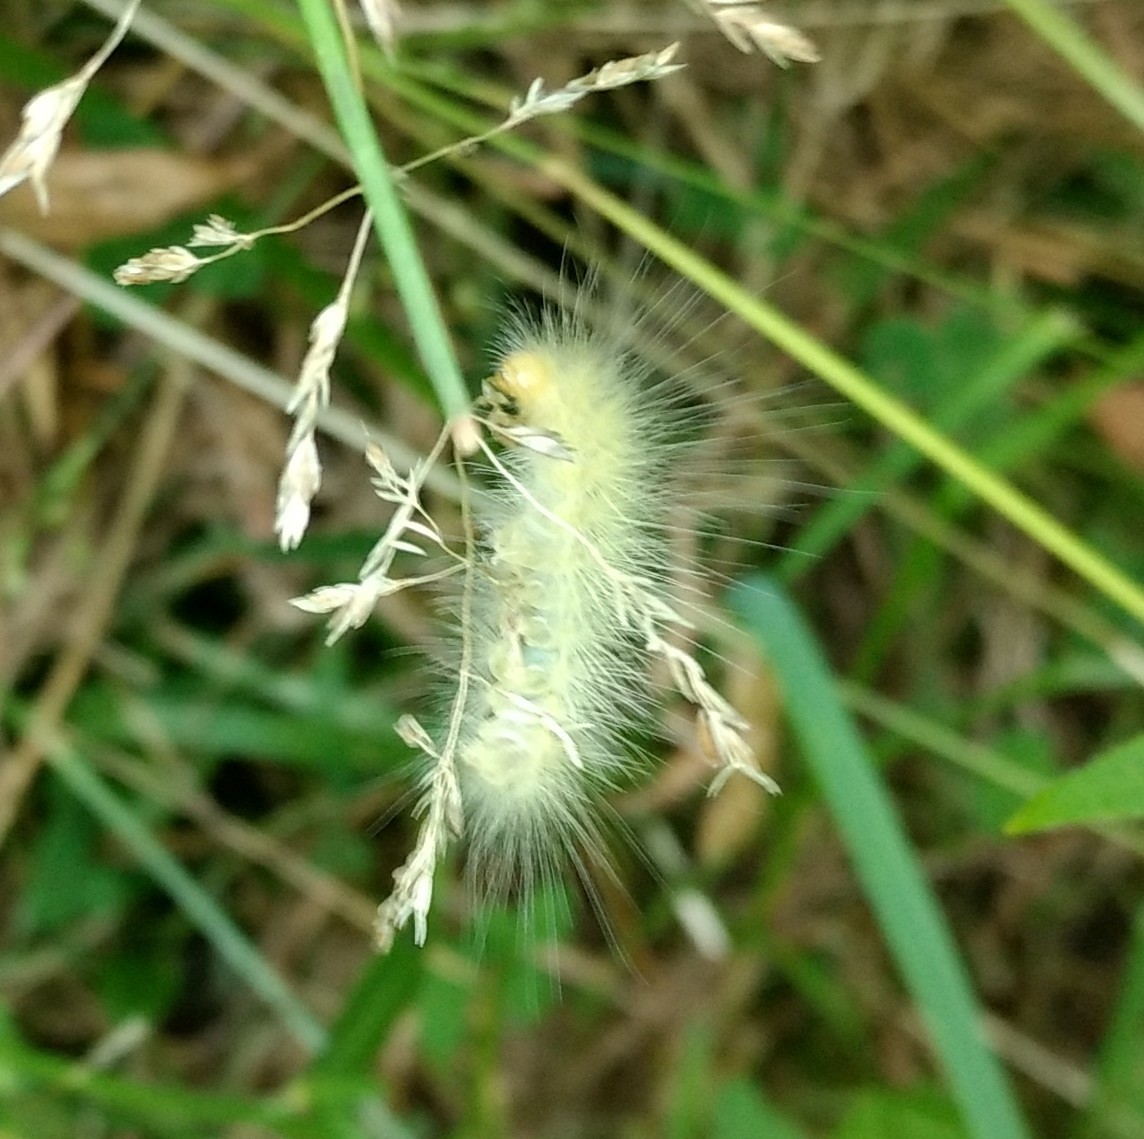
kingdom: Animalia
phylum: Arthropoda
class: Insecta
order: Lepidoptera
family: Erebidae
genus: Spilosoma
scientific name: Spilosoma virginica
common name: Virginia tiger moth
